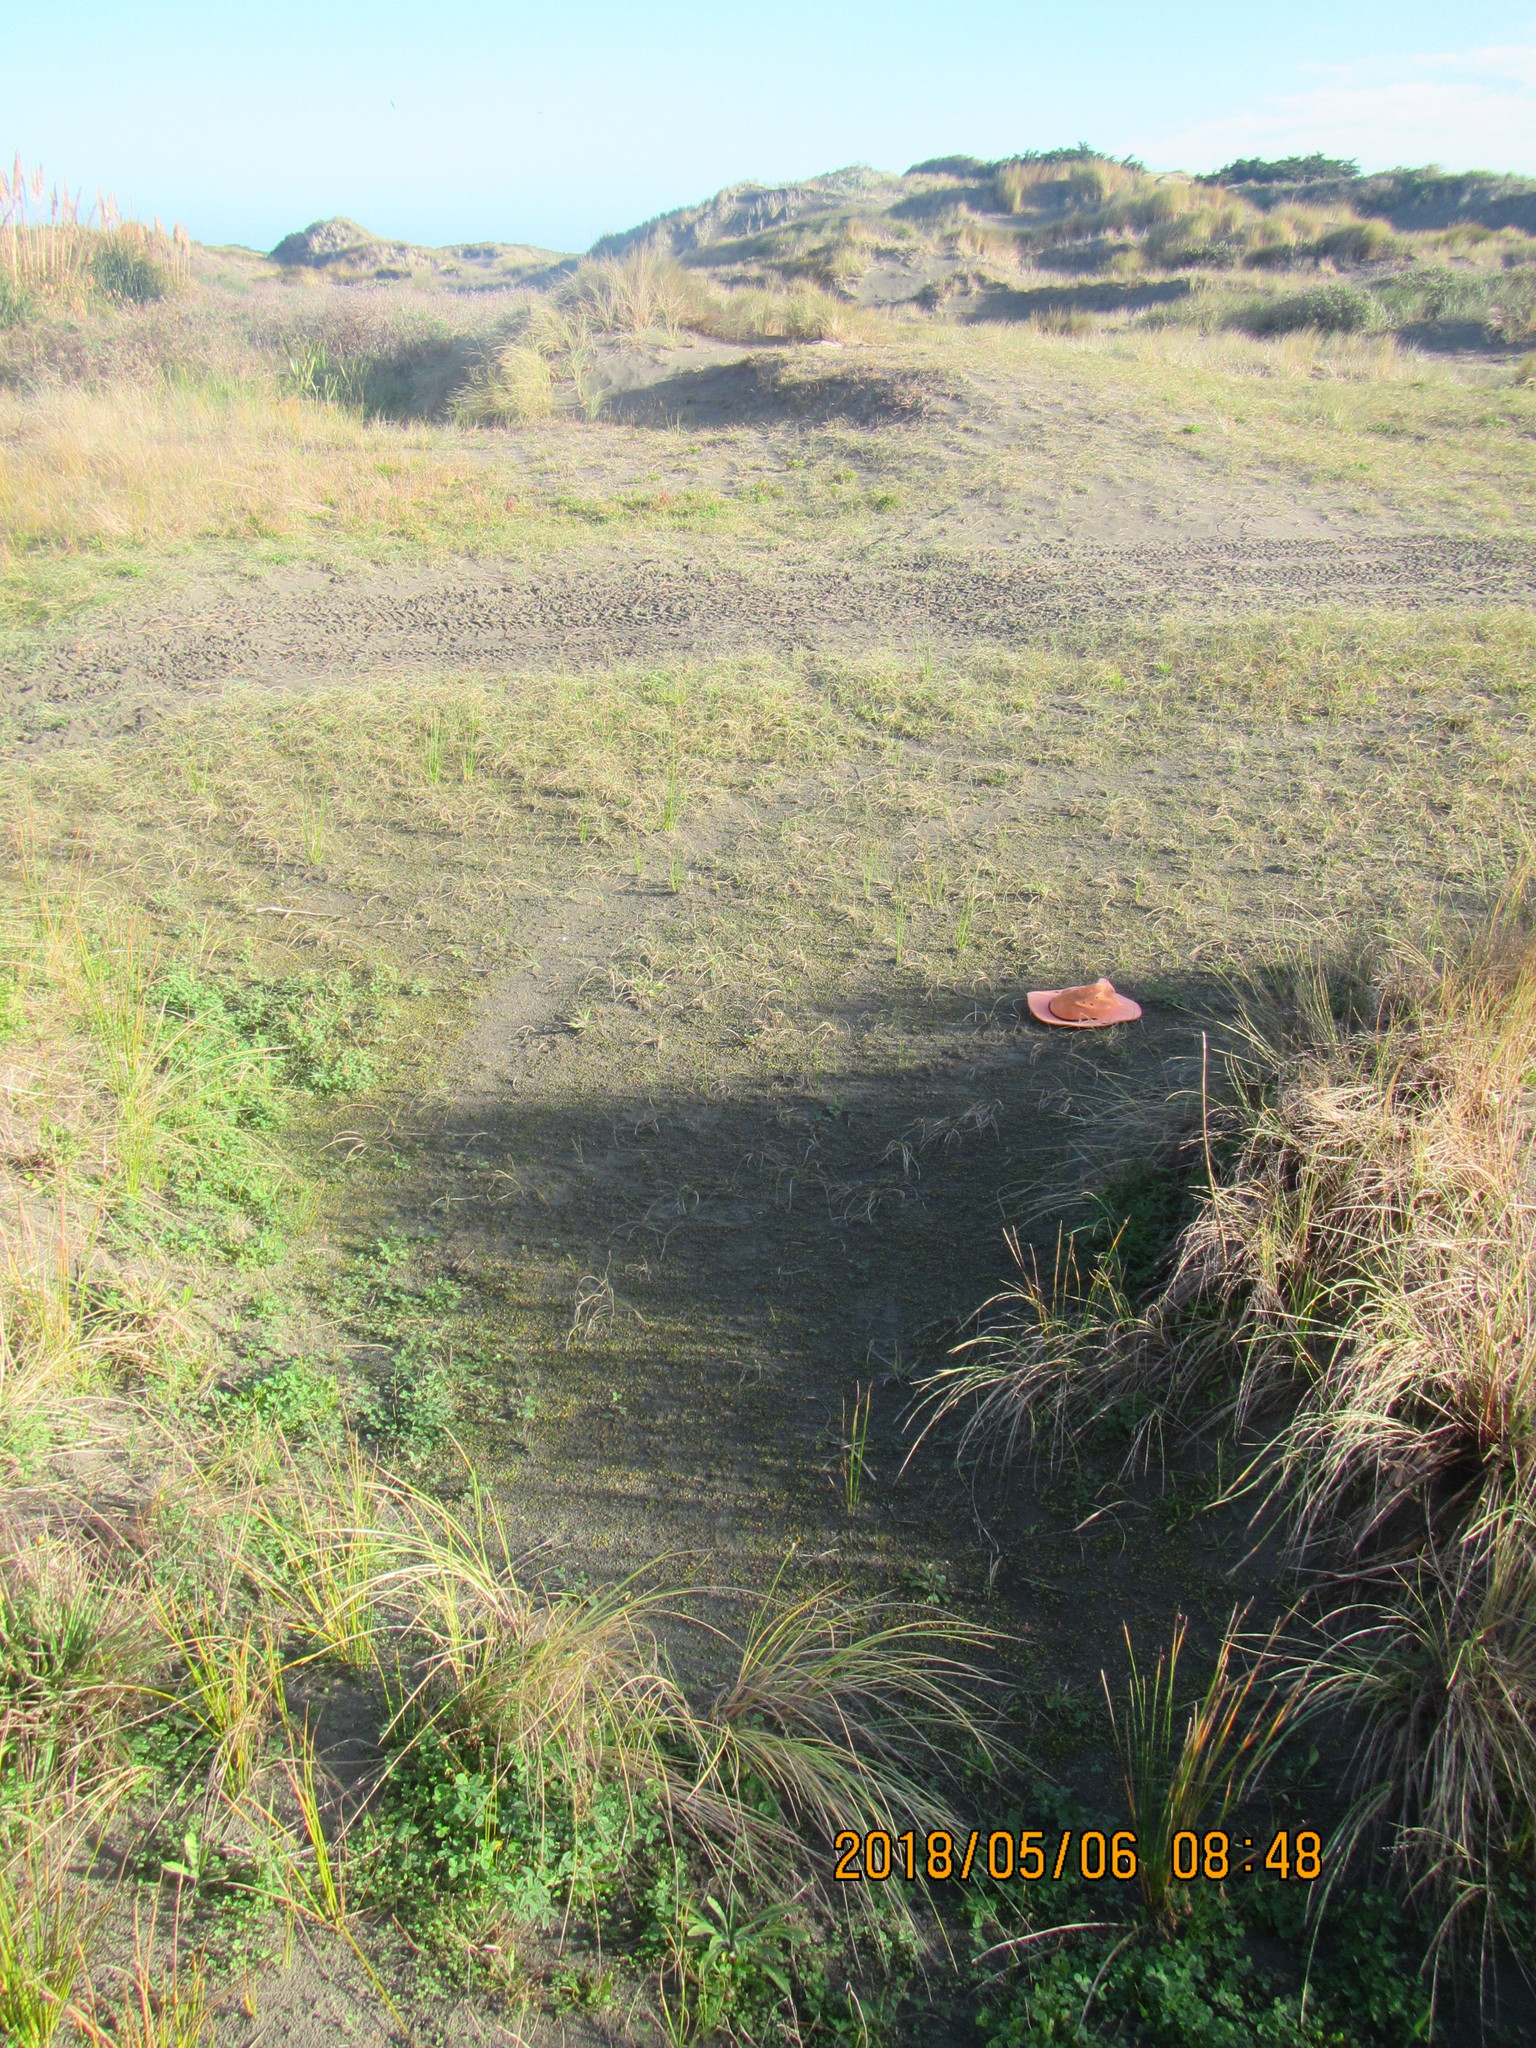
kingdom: Plantae
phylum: Tracheophyta
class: Magnoliopsida
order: Asterales
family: Goodeniaceae
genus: Goodenia
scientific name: Goodenia heenanii
